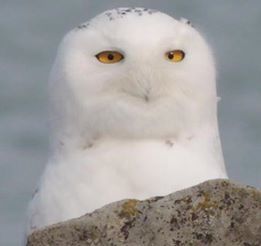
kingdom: Animalia
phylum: Chordata
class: Aves
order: Strigiformes
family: Strigidae
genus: Bubo
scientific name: Bubo scandiacus
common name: Snowy owl
